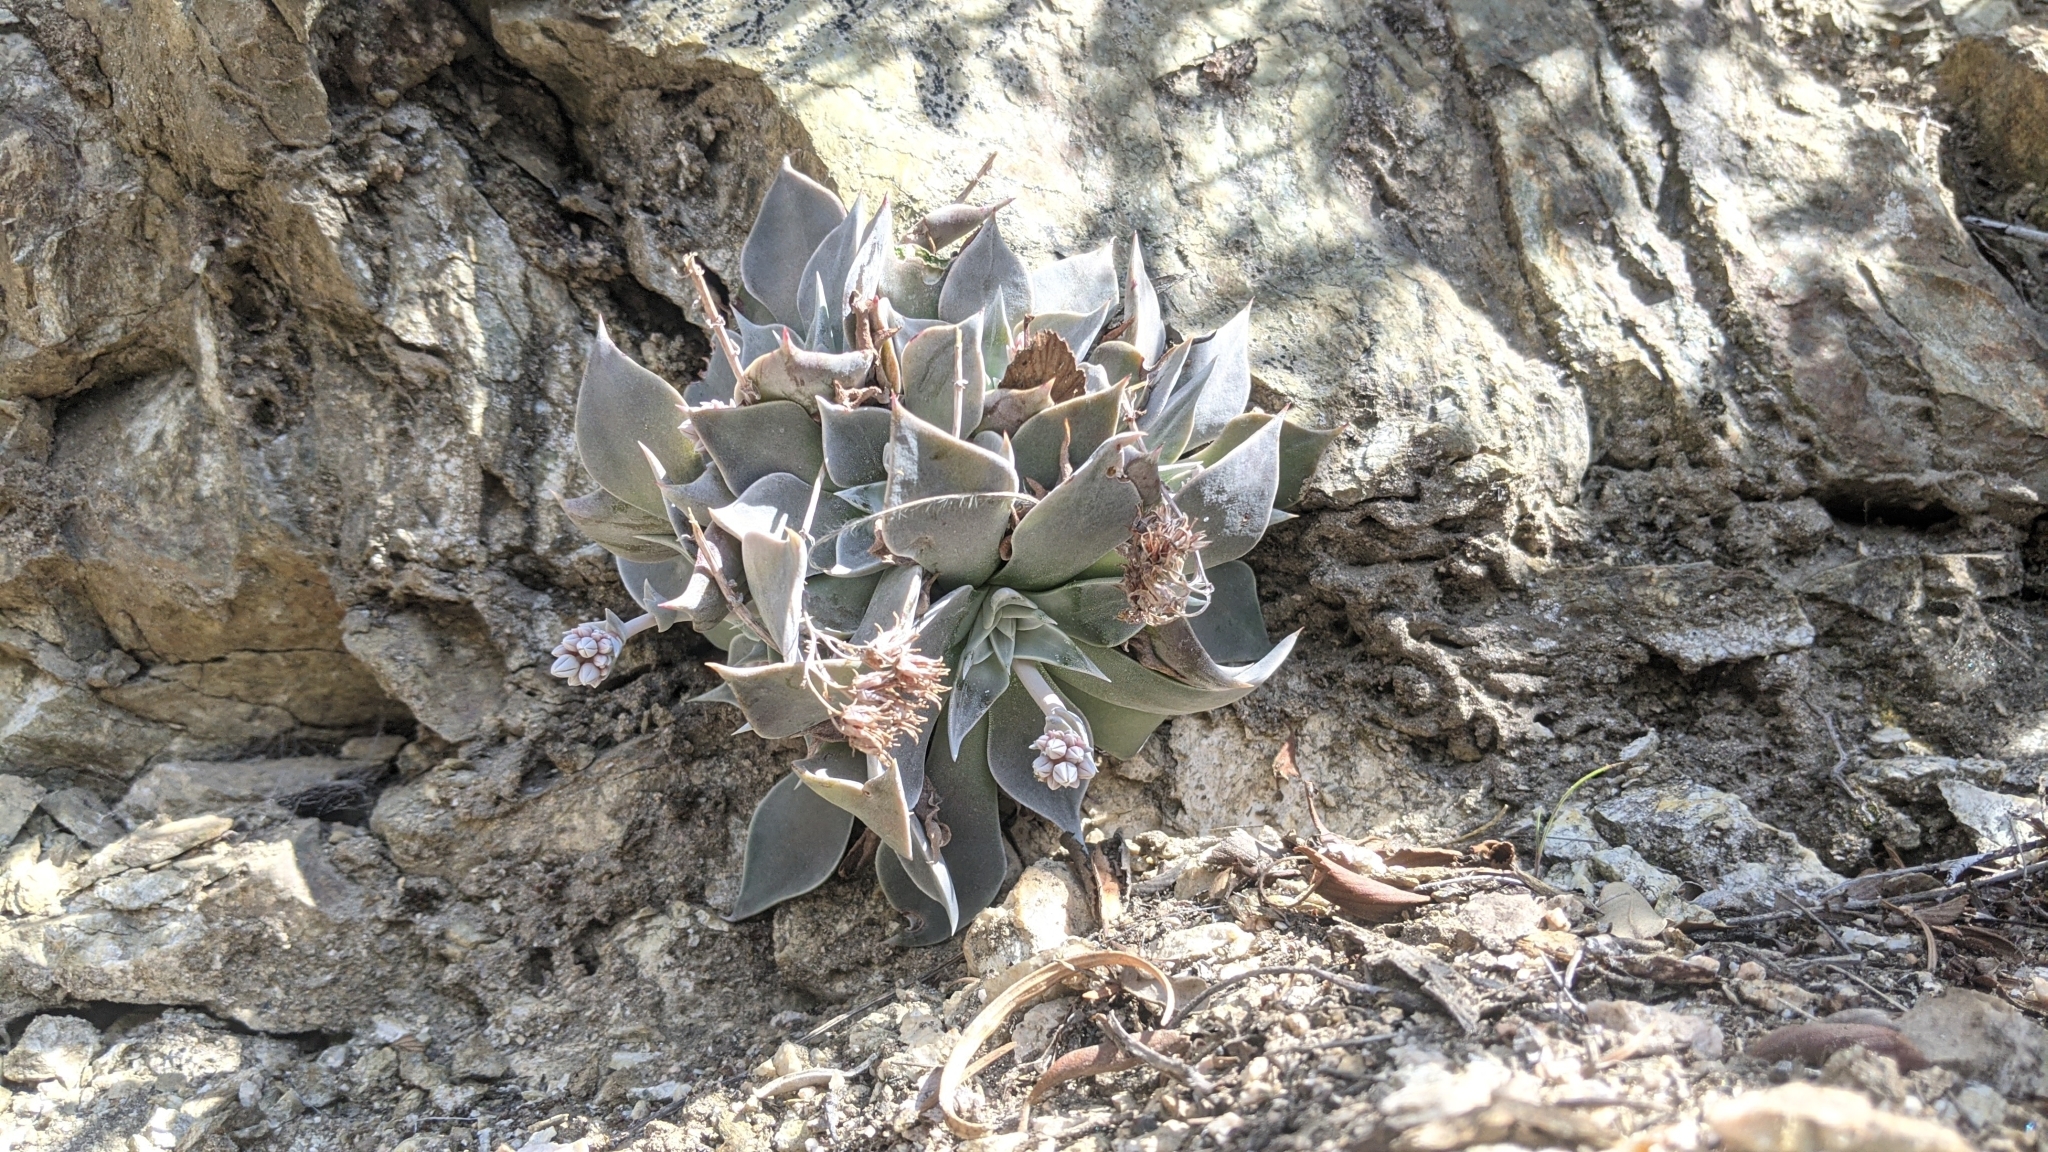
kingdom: Plantae
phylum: Tracheophyta
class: Magnoliopsida
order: Saxifragales
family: Crassulaceae
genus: Dudleya
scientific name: Dudleya cymosa
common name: Canyon dudleya
